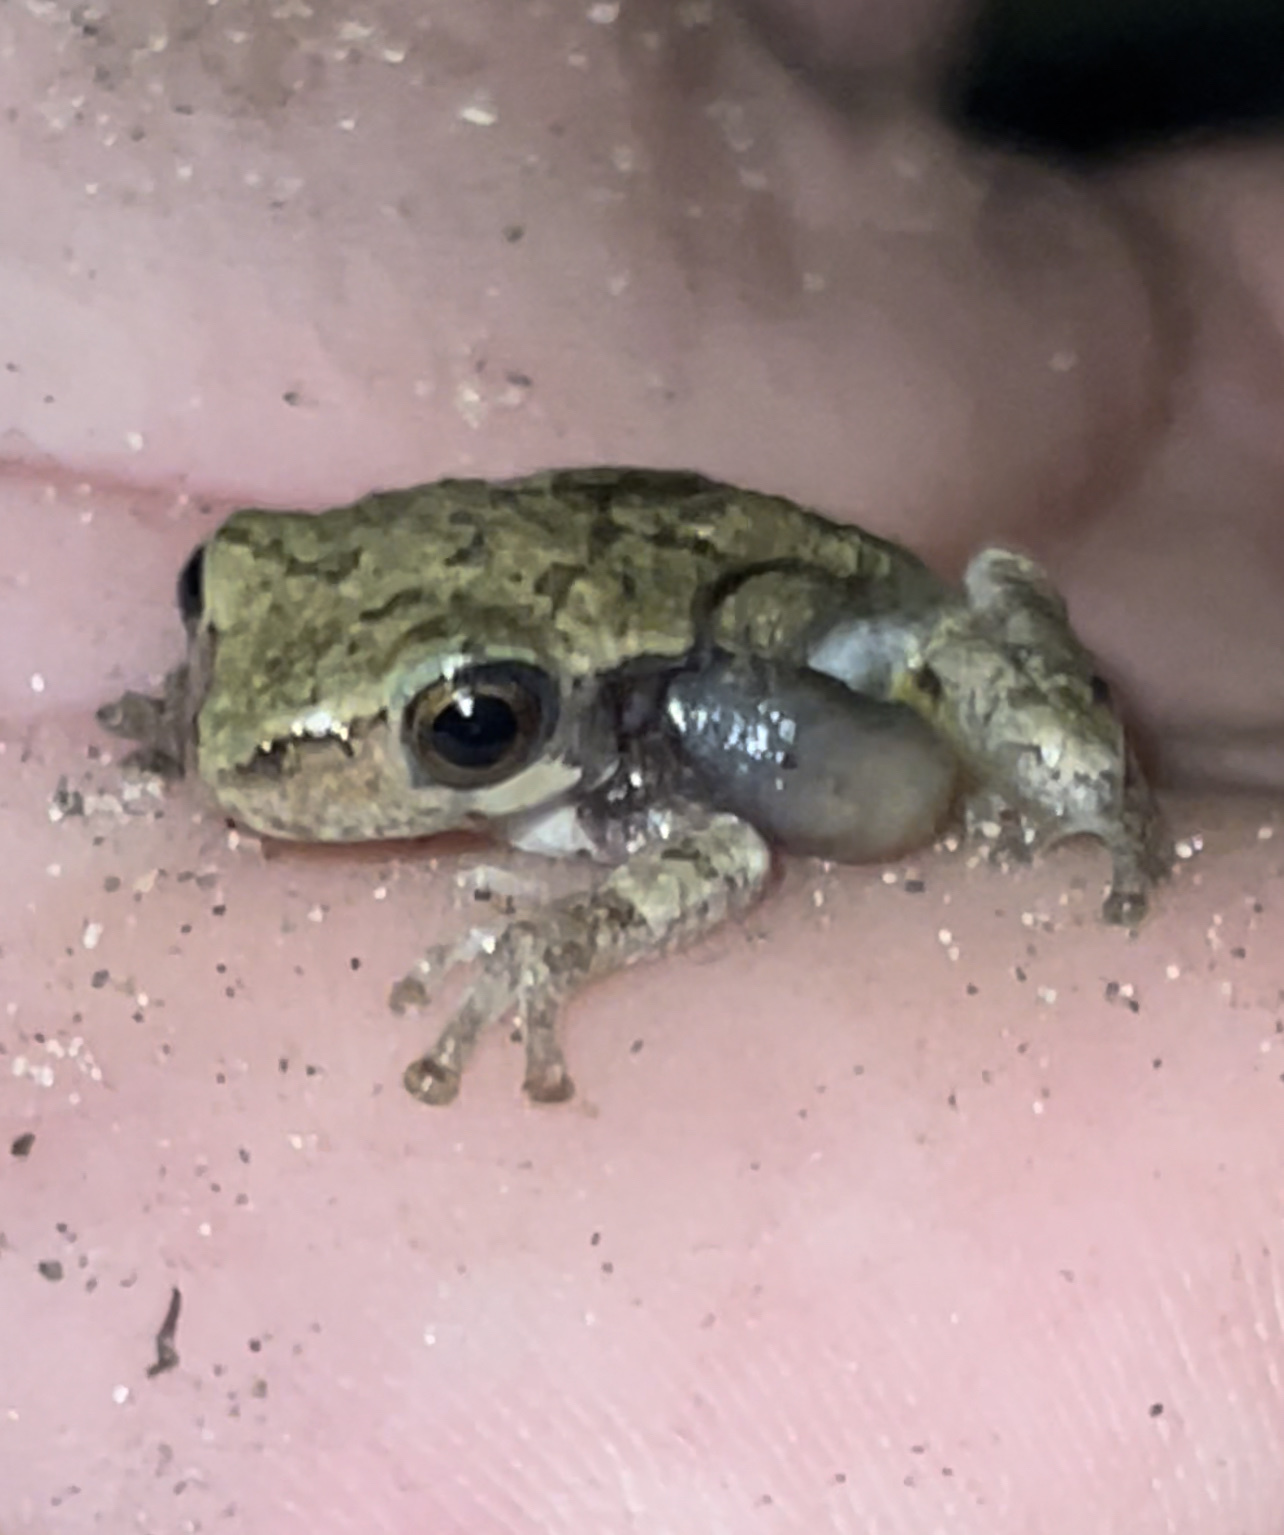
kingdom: Animalia
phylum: Chordata
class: Amphibia
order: Anura
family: Hylidae
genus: Hyla
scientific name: Hyla
